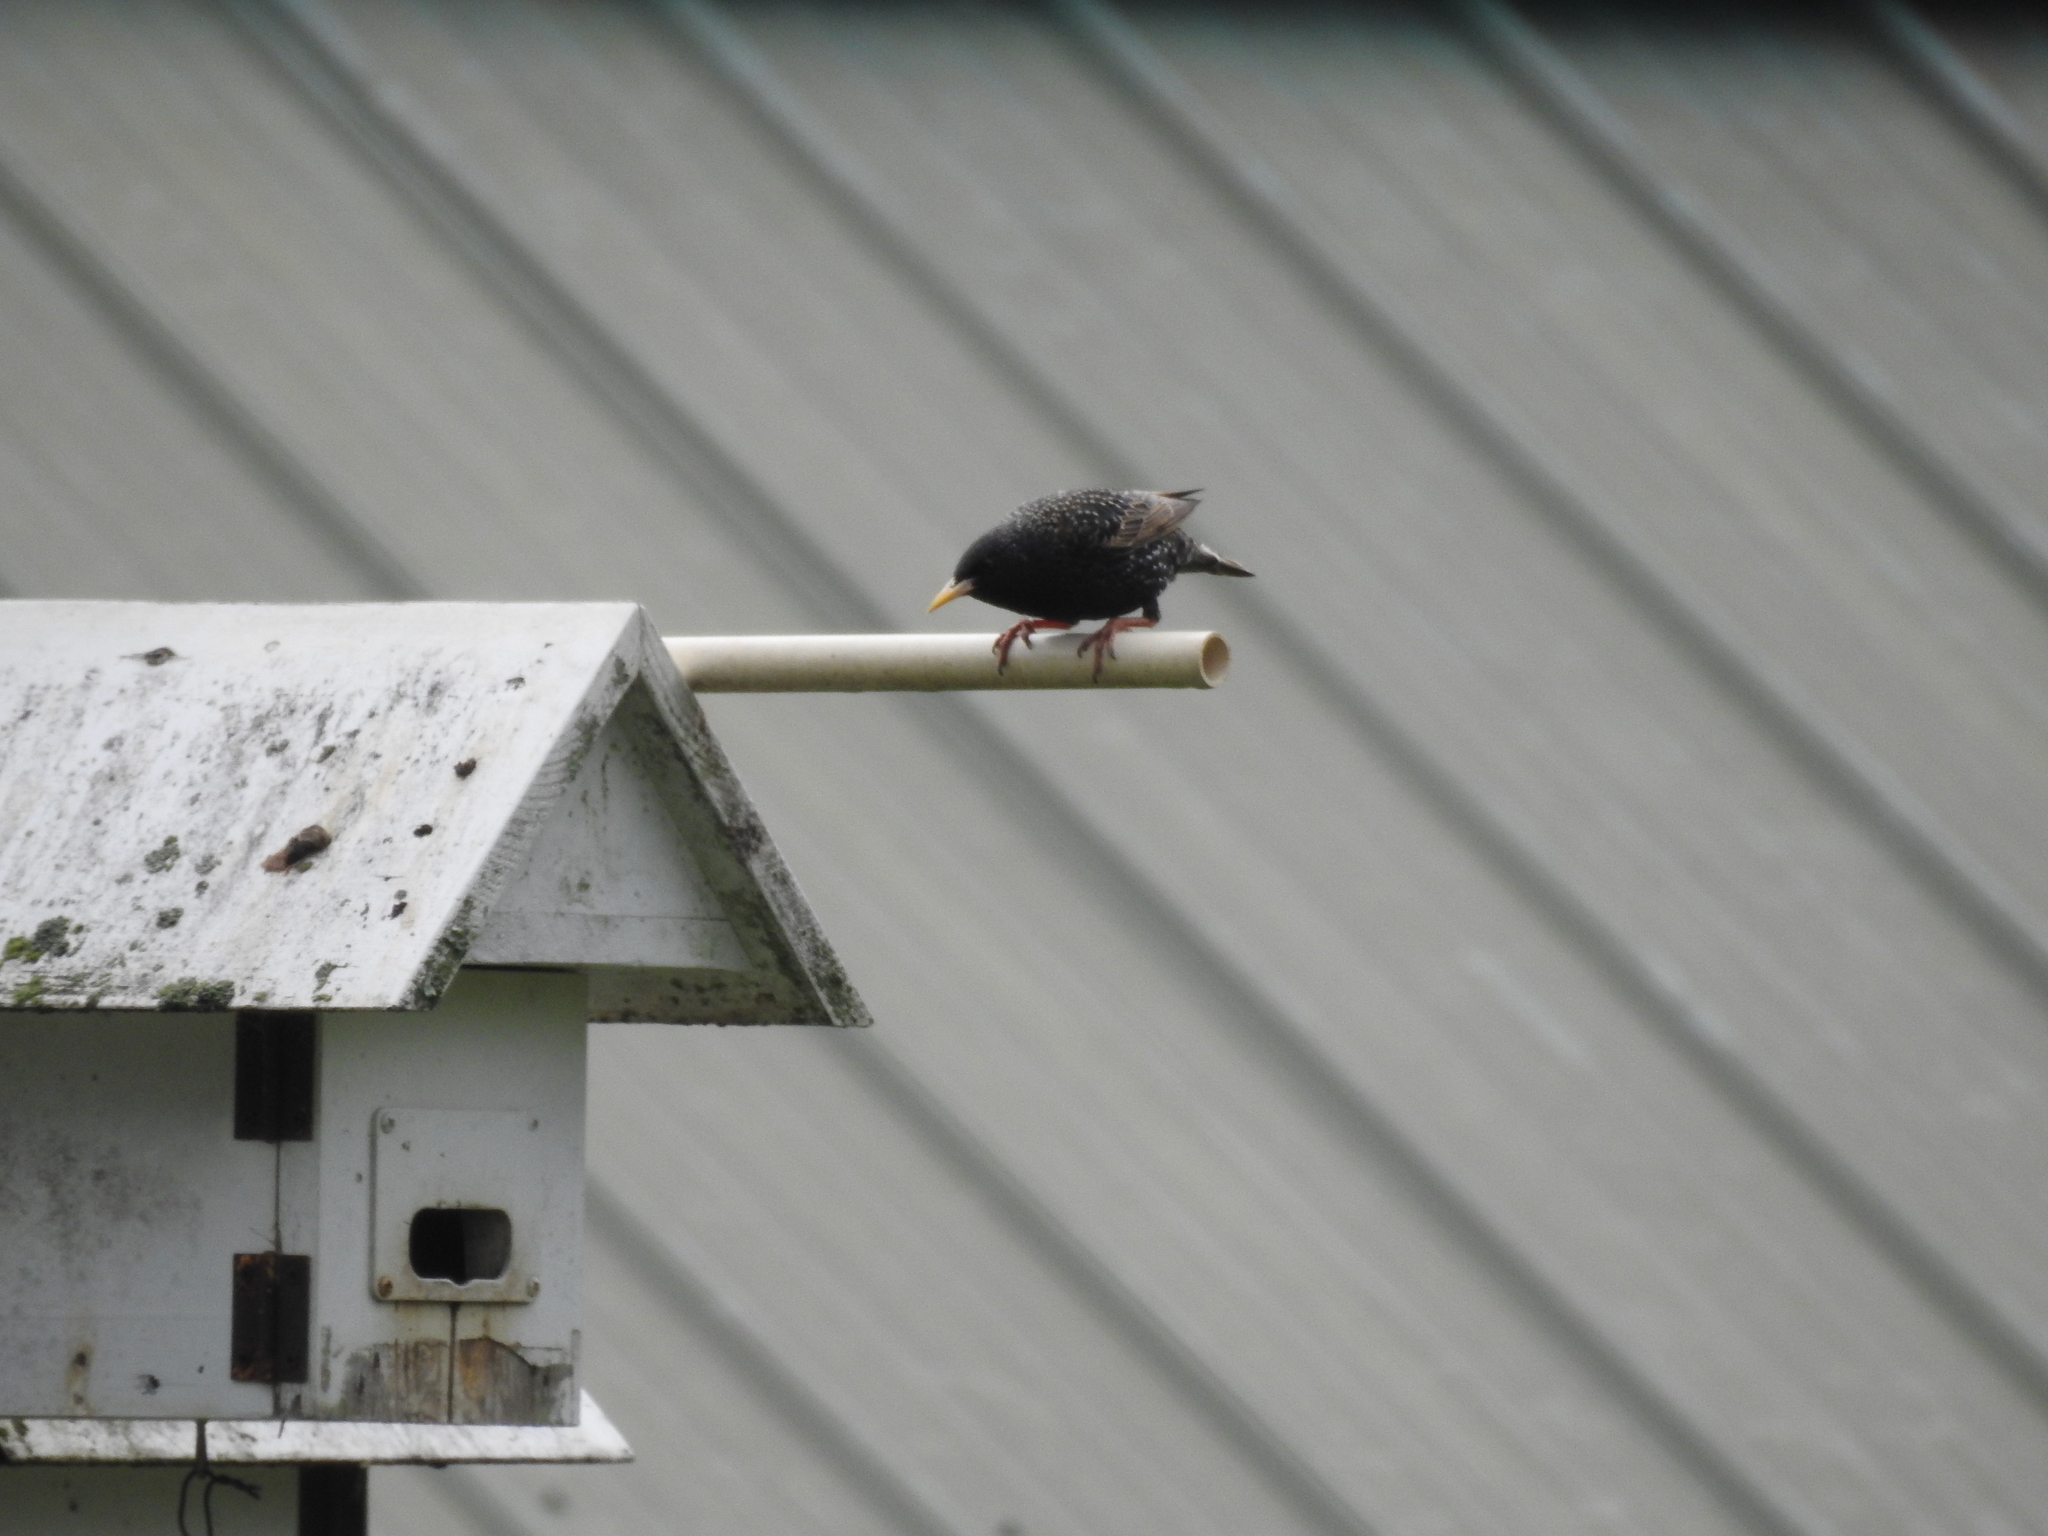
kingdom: Animalia
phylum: Chordata
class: Aves
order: Passeriformes
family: Sturnidae
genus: Sturnus
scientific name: Sturnus vulgaris
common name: Common starling
